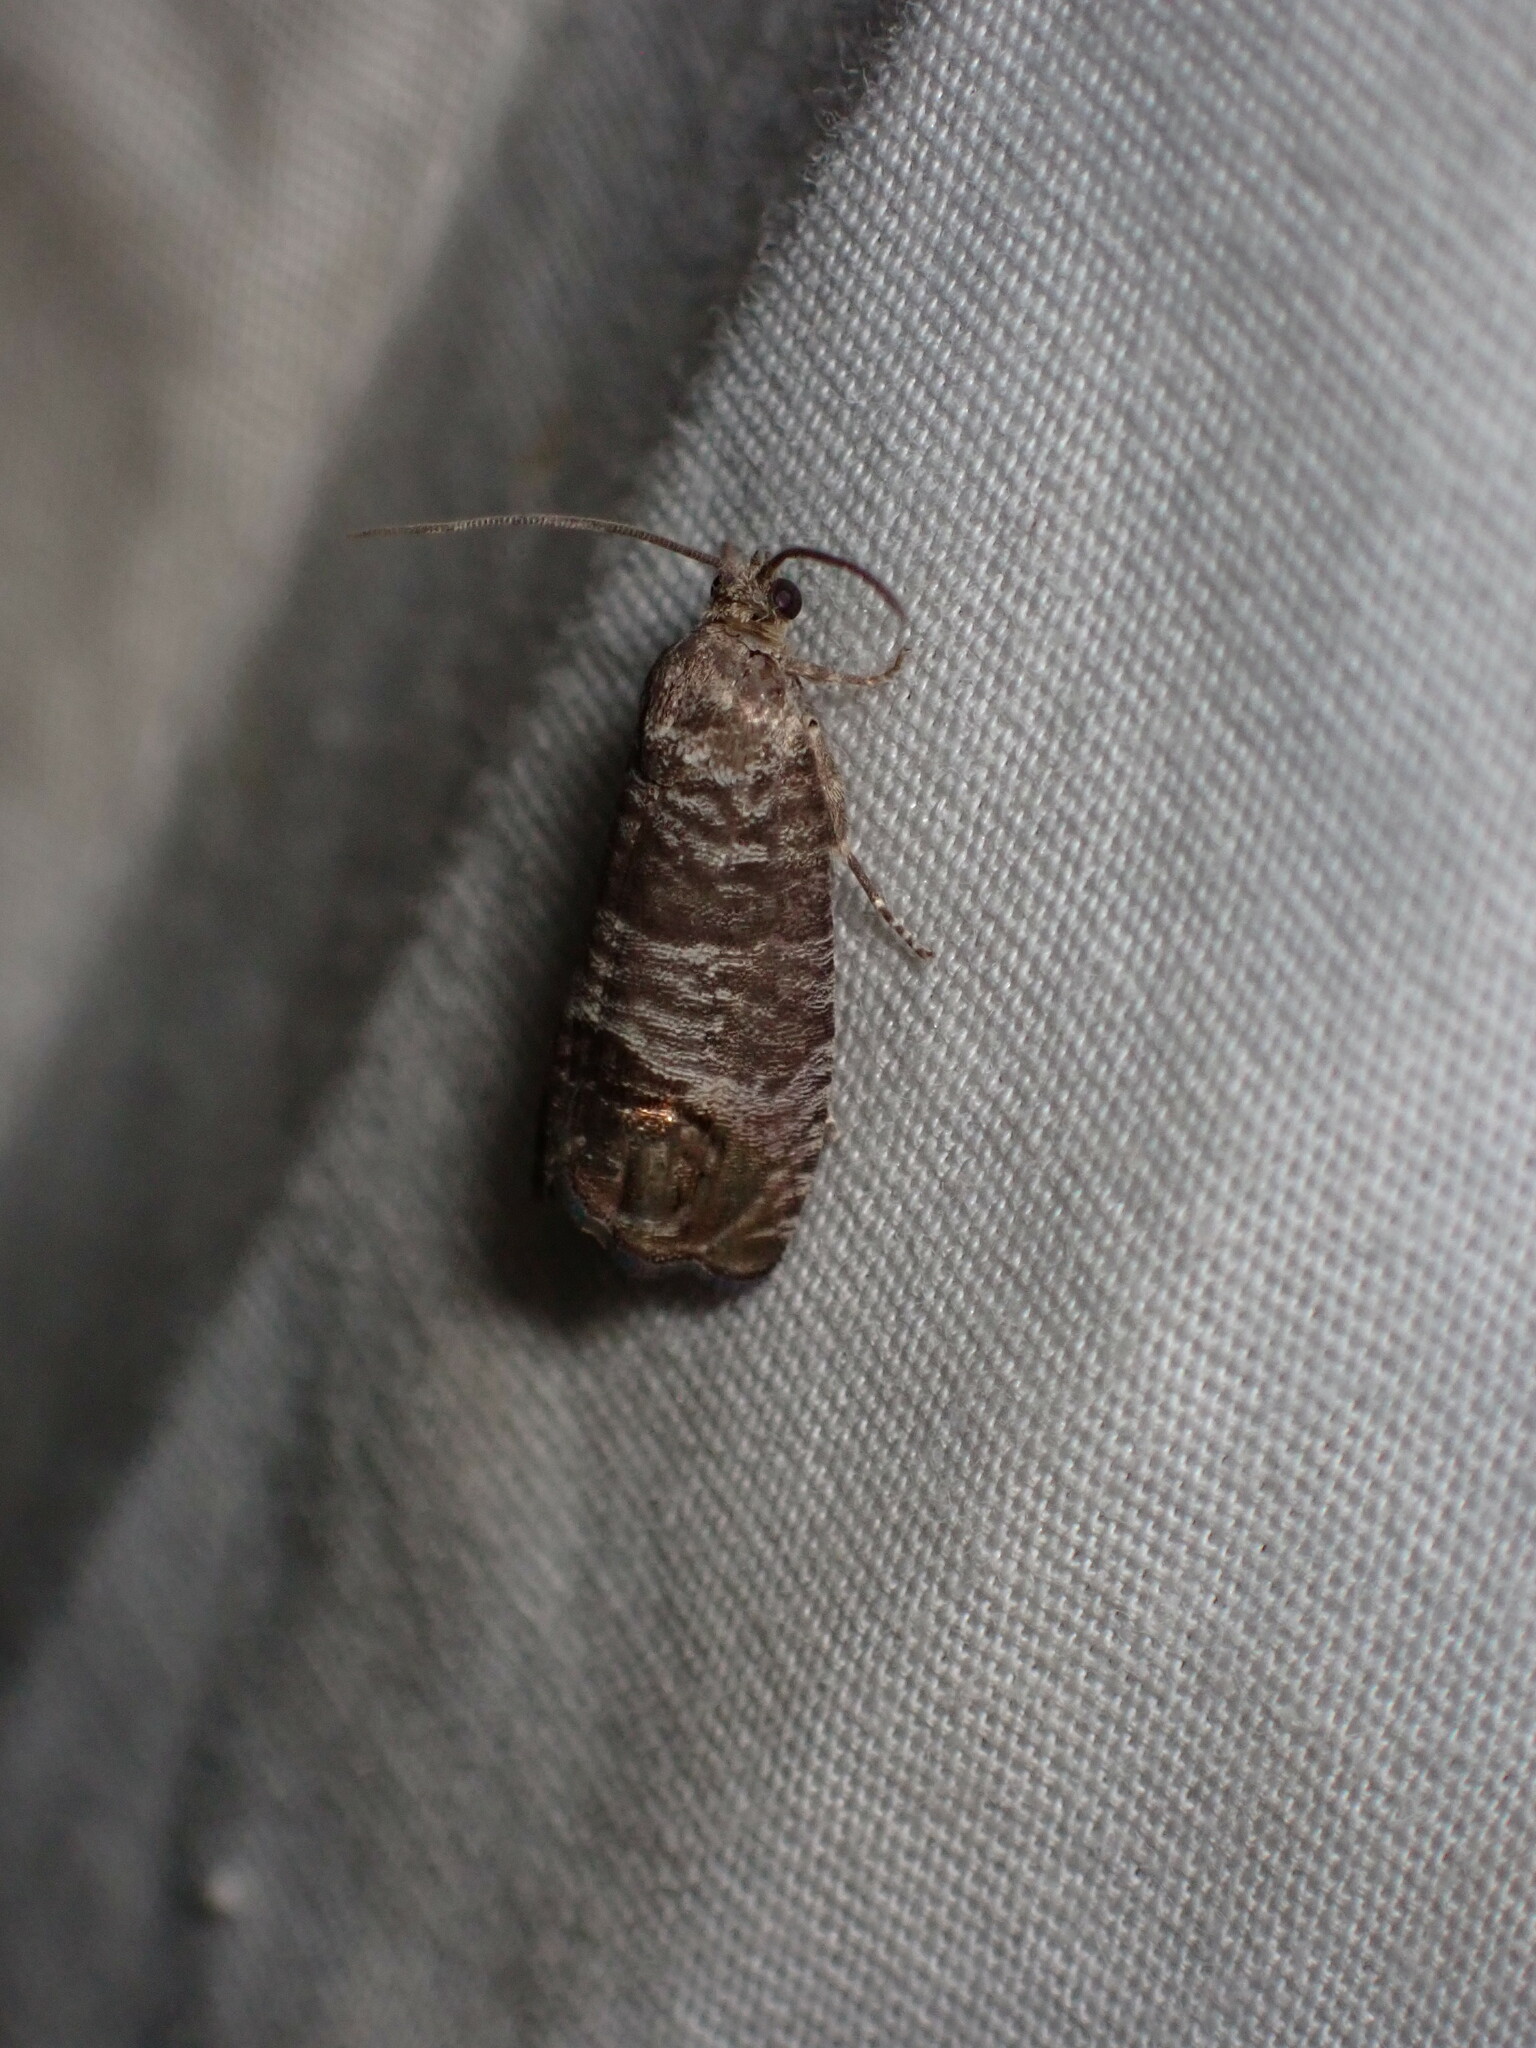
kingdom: Animalia
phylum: Arthropoda
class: Insecta
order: Lepidoptera
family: Tortricidae
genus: Cydia
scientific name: Cydia pomonella
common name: Codling moth
